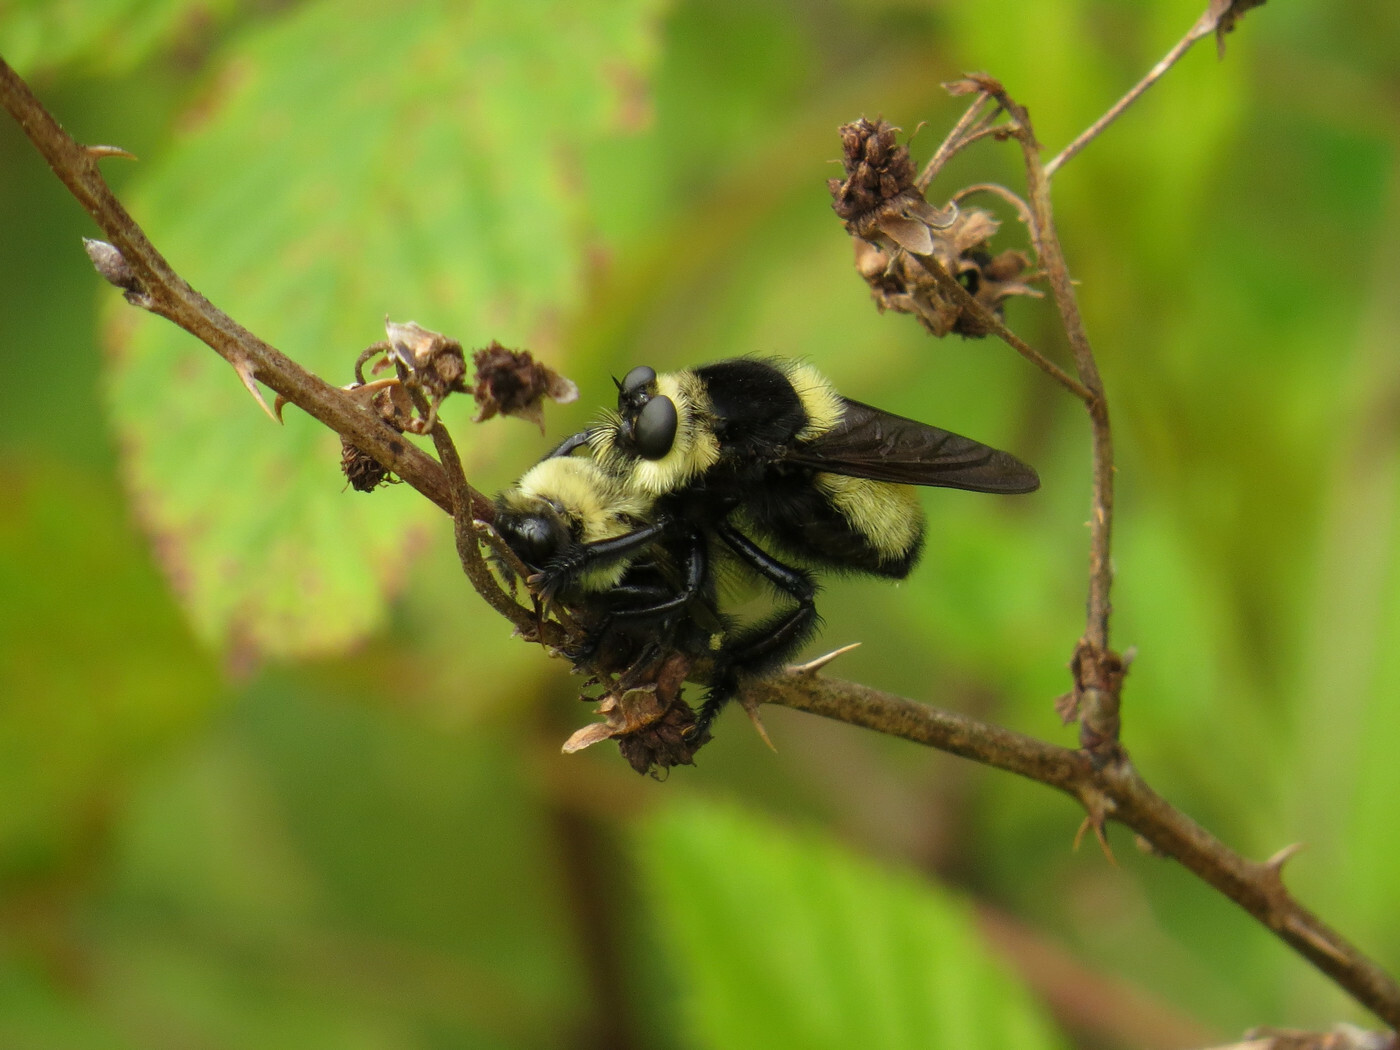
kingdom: Animalia
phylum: Arthropoda
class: Insecta
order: Diptera
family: Asilidae
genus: Mallophora
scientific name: Mallophora orcina
